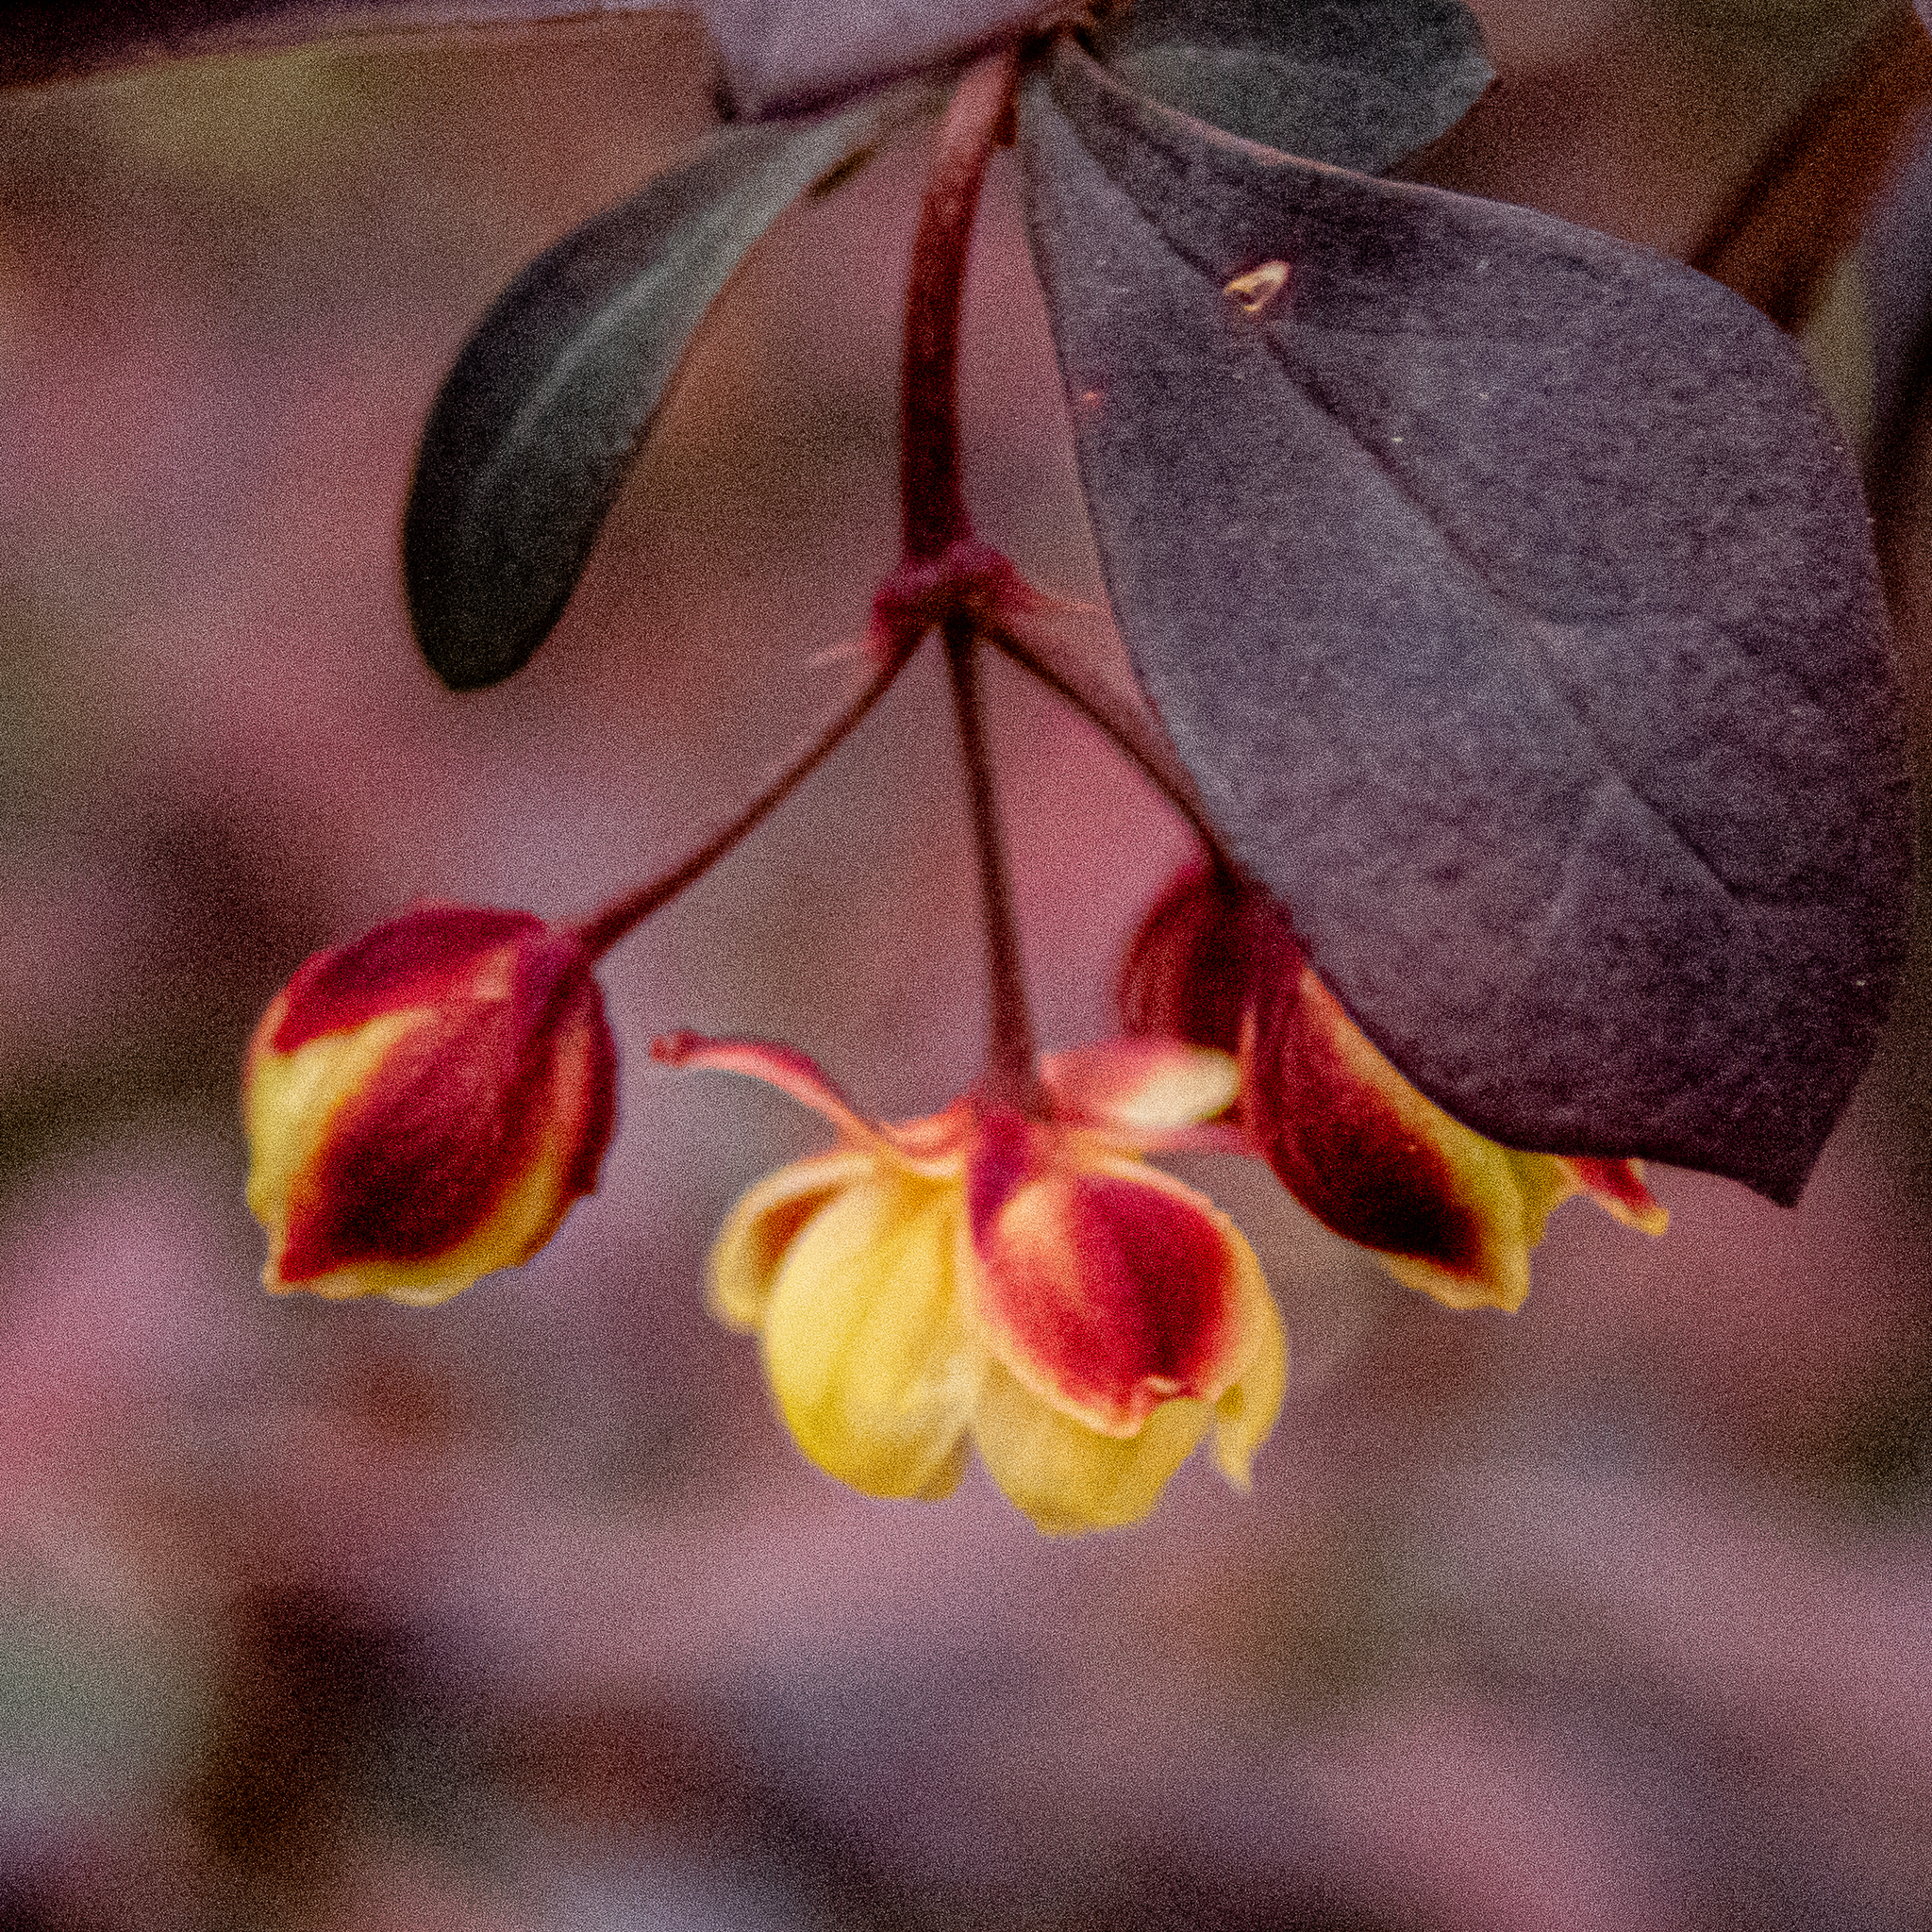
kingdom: Plantae
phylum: Tracheophyta
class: Magnoliopsida
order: Ranunculales
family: Berberidaceae
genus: Berberis
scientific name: Berberis thunbergii
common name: Japanese barberry
